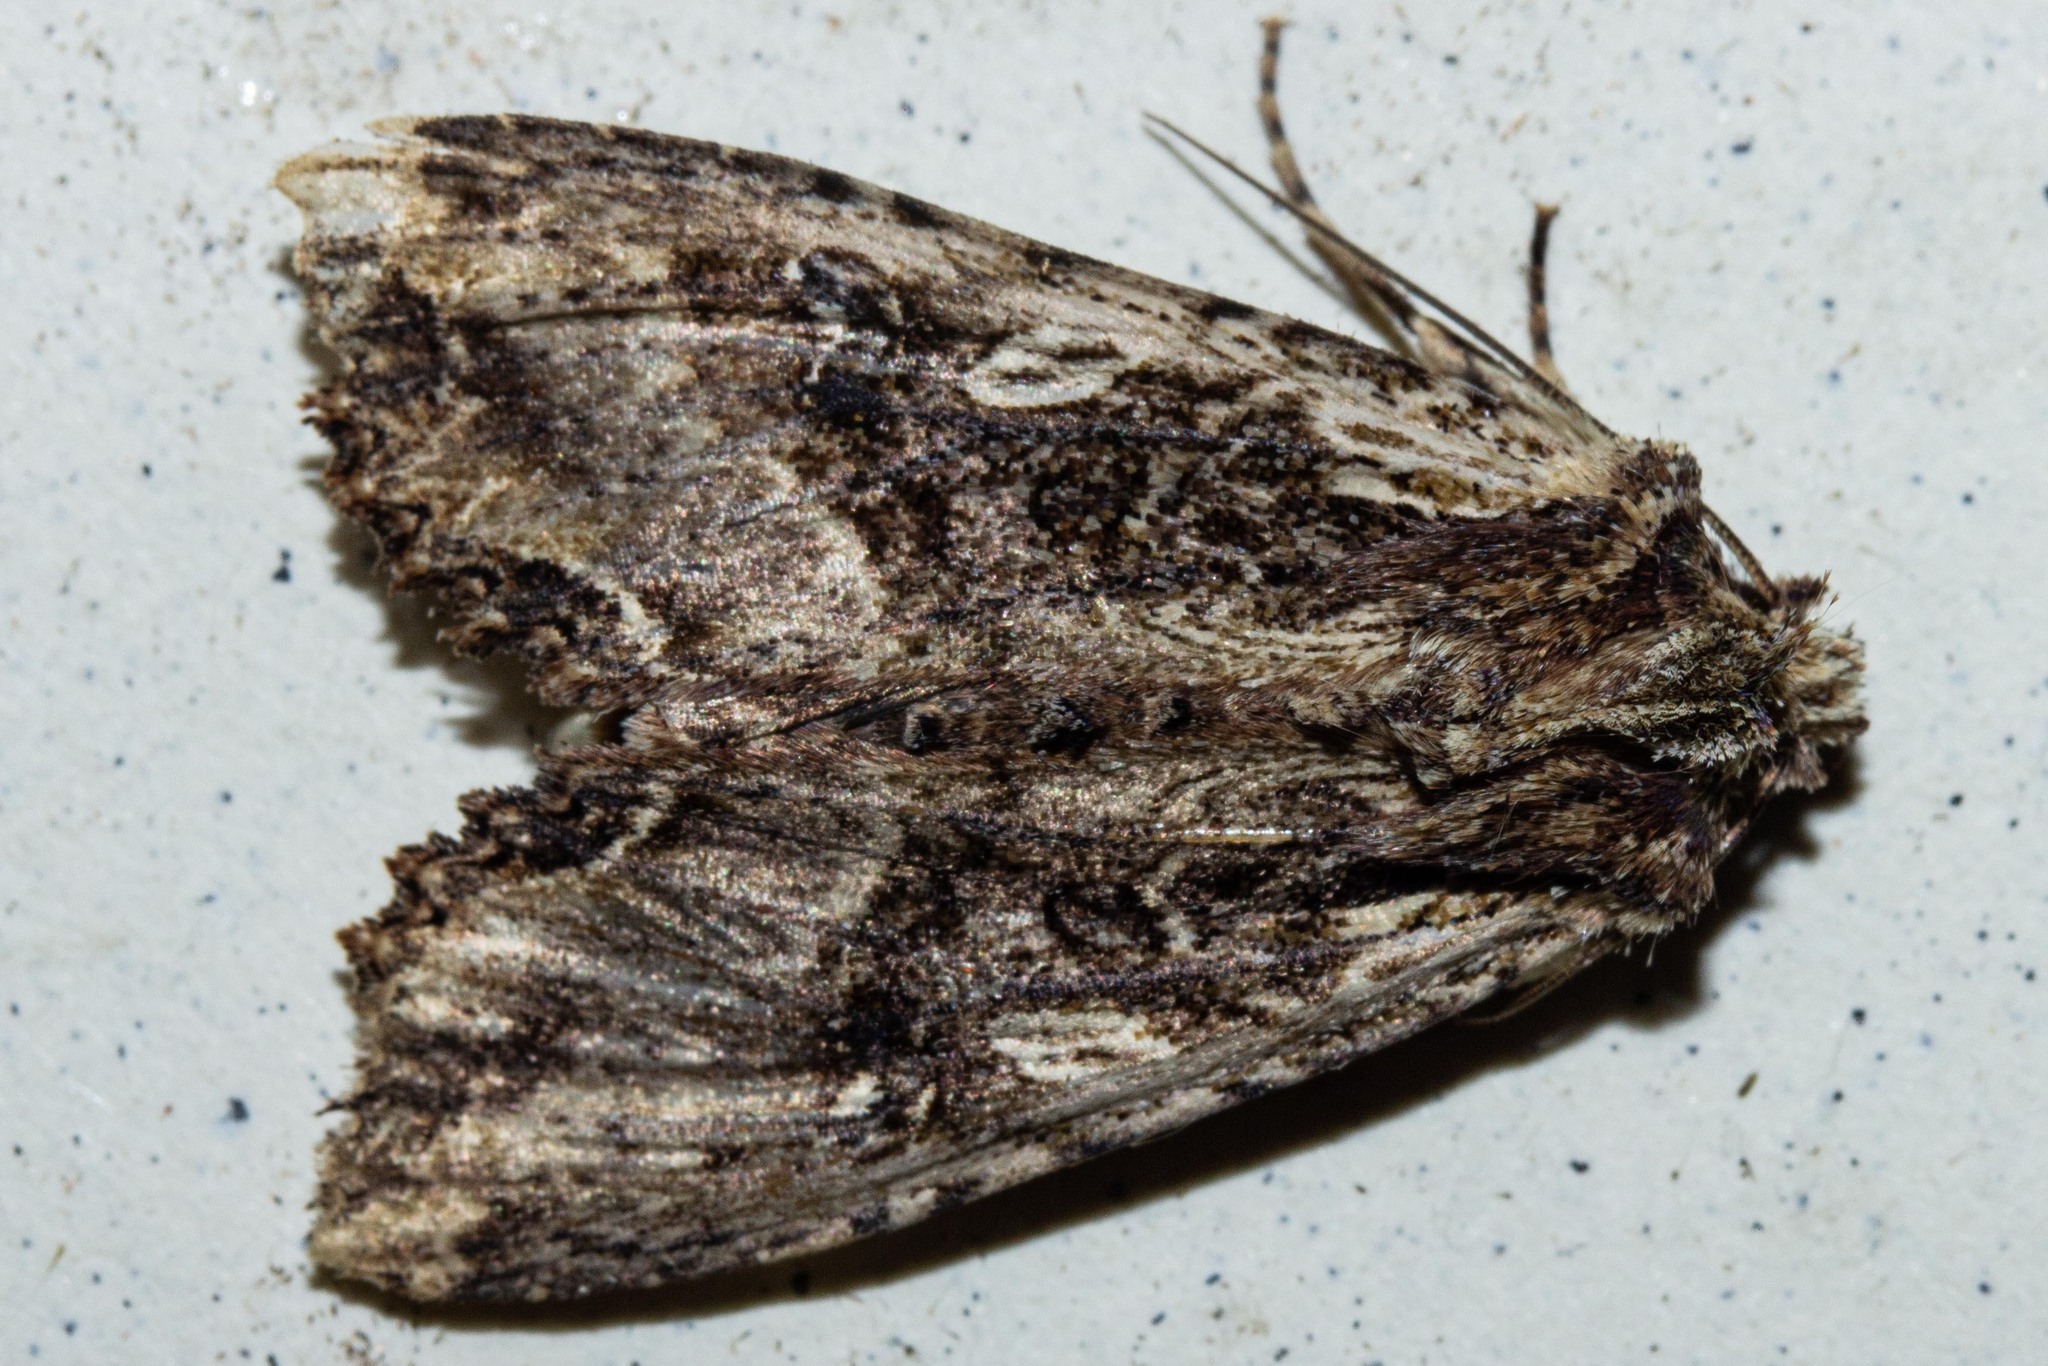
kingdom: Animalia
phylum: Arthropoda
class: Insecta
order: Lepidoptera
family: Noctuidae
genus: Meterana
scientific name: Meterana stipata
